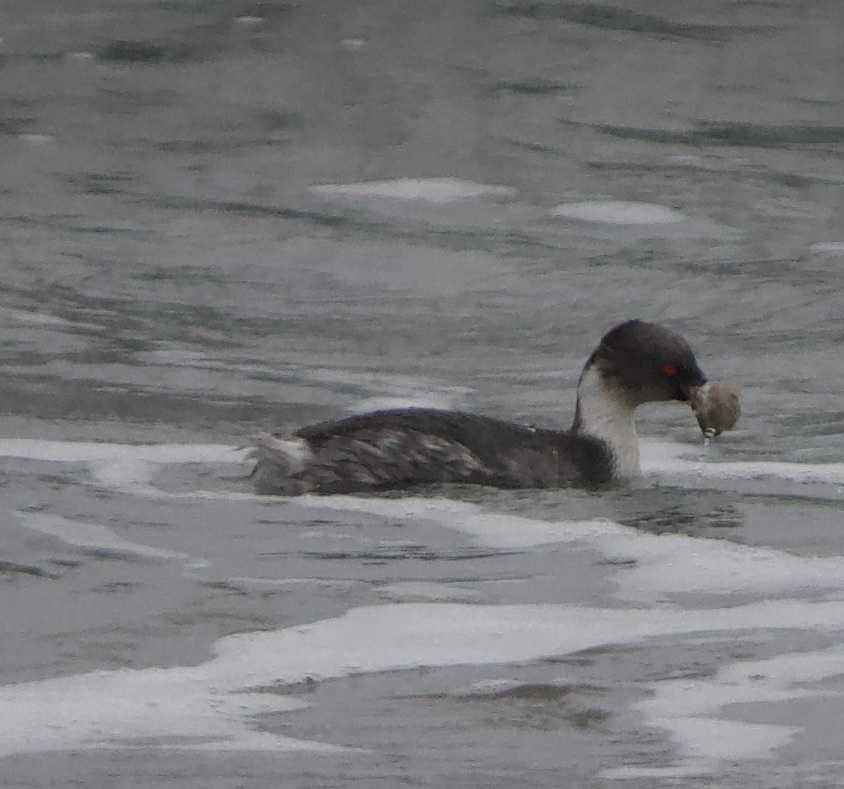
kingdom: Animalia
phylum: Chordata
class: Aves
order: Podicipediformes
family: Podicipedidae
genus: Podiceps
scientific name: Podiceps occipitalis
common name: Silvery grebe
